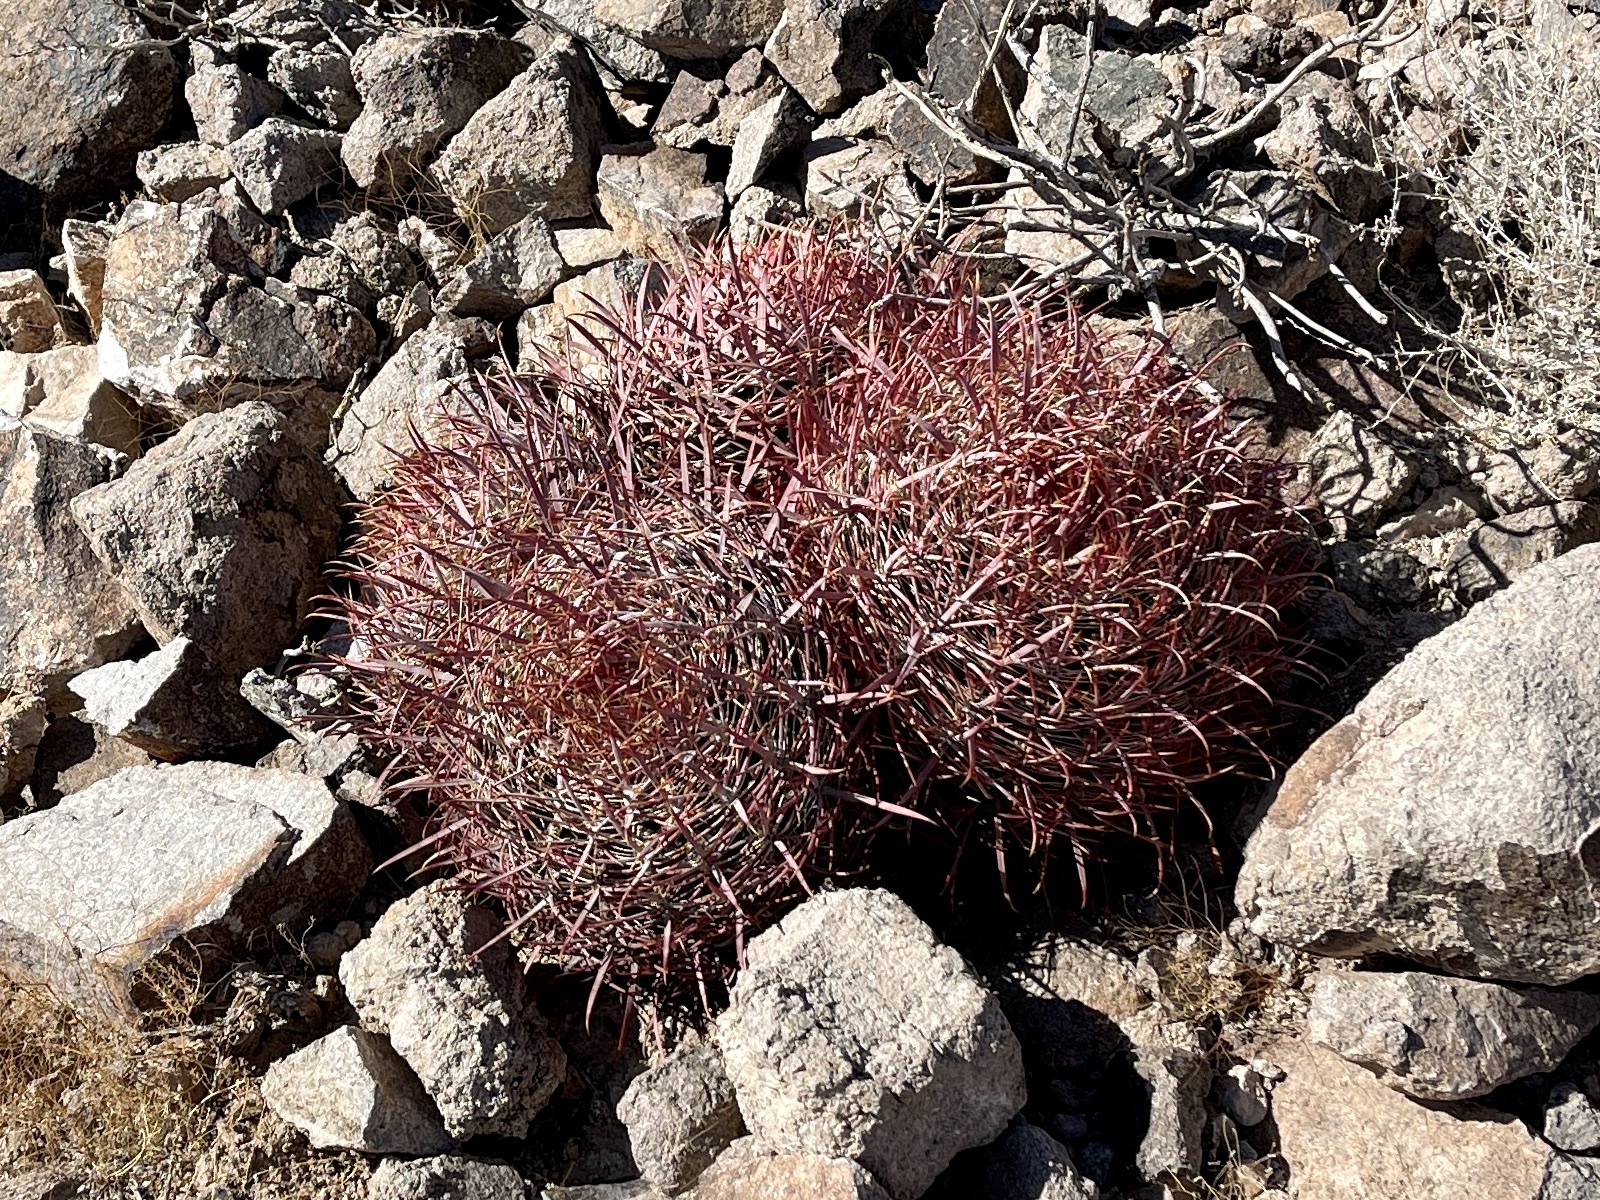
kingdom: Plantae
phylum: Tracheophyta
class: Magnoliopsida
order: Caryophyllales
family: Cactaceae
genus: Ferocactus
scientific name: Ferocactus cylindraceus
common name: California barrel cactus
